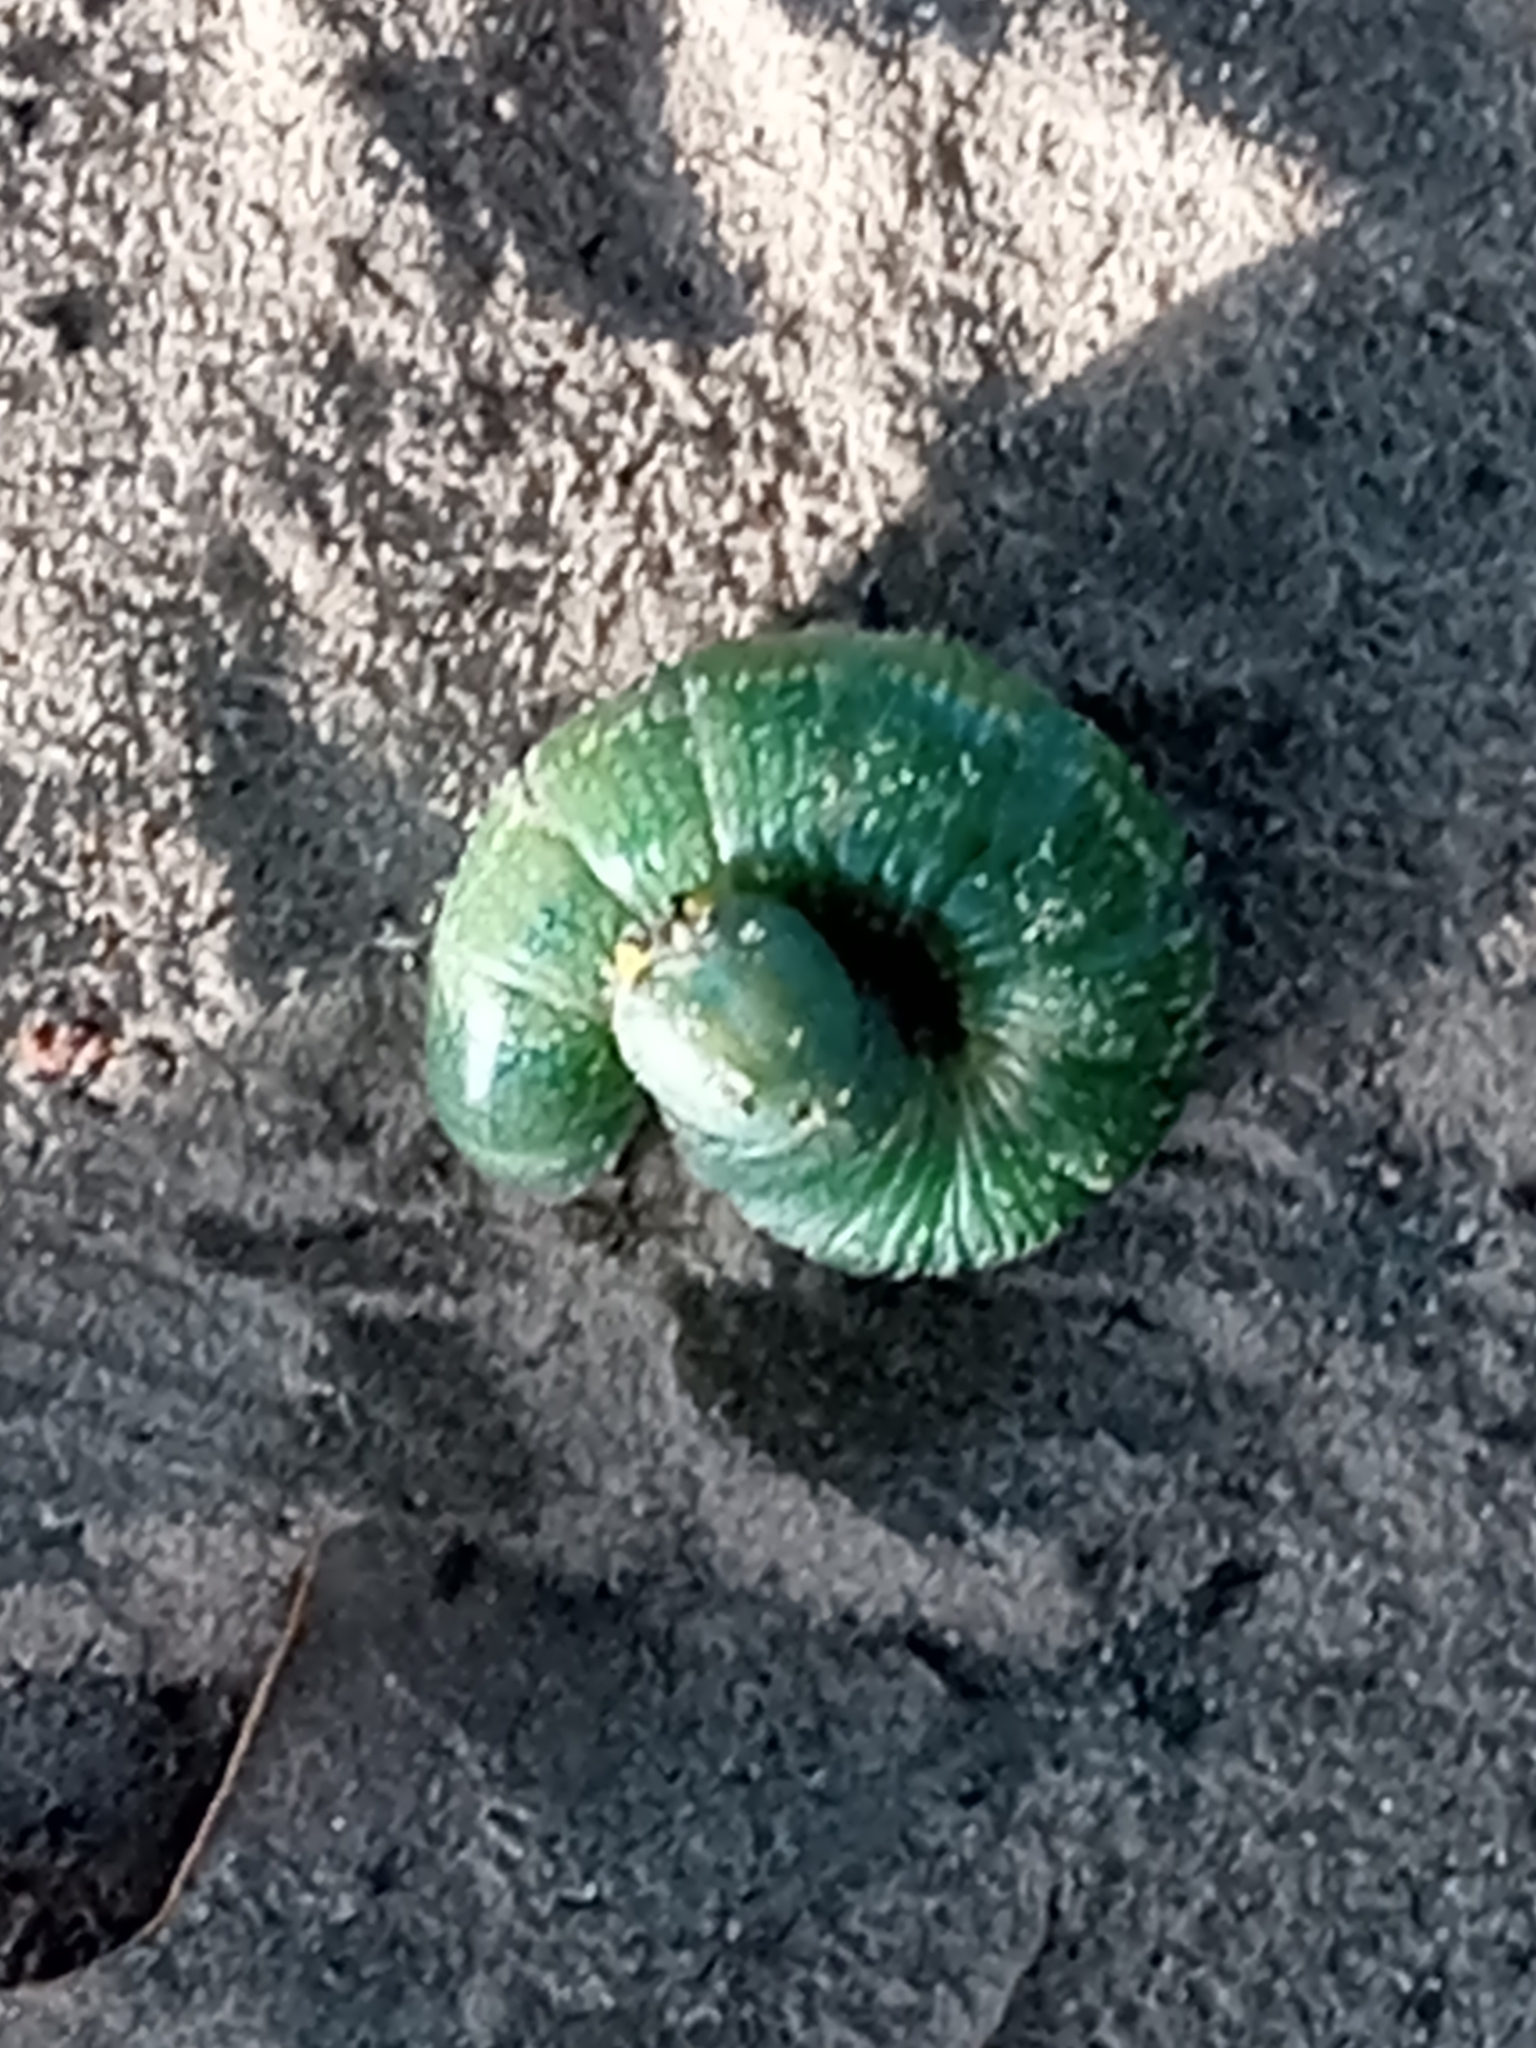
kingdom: Animalia
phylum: Arthropoda
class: Insecta
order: Lepidoptera
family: Notodontidae
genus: Nadata
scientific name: Nadata gibbosa
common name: White-dotted prominent
